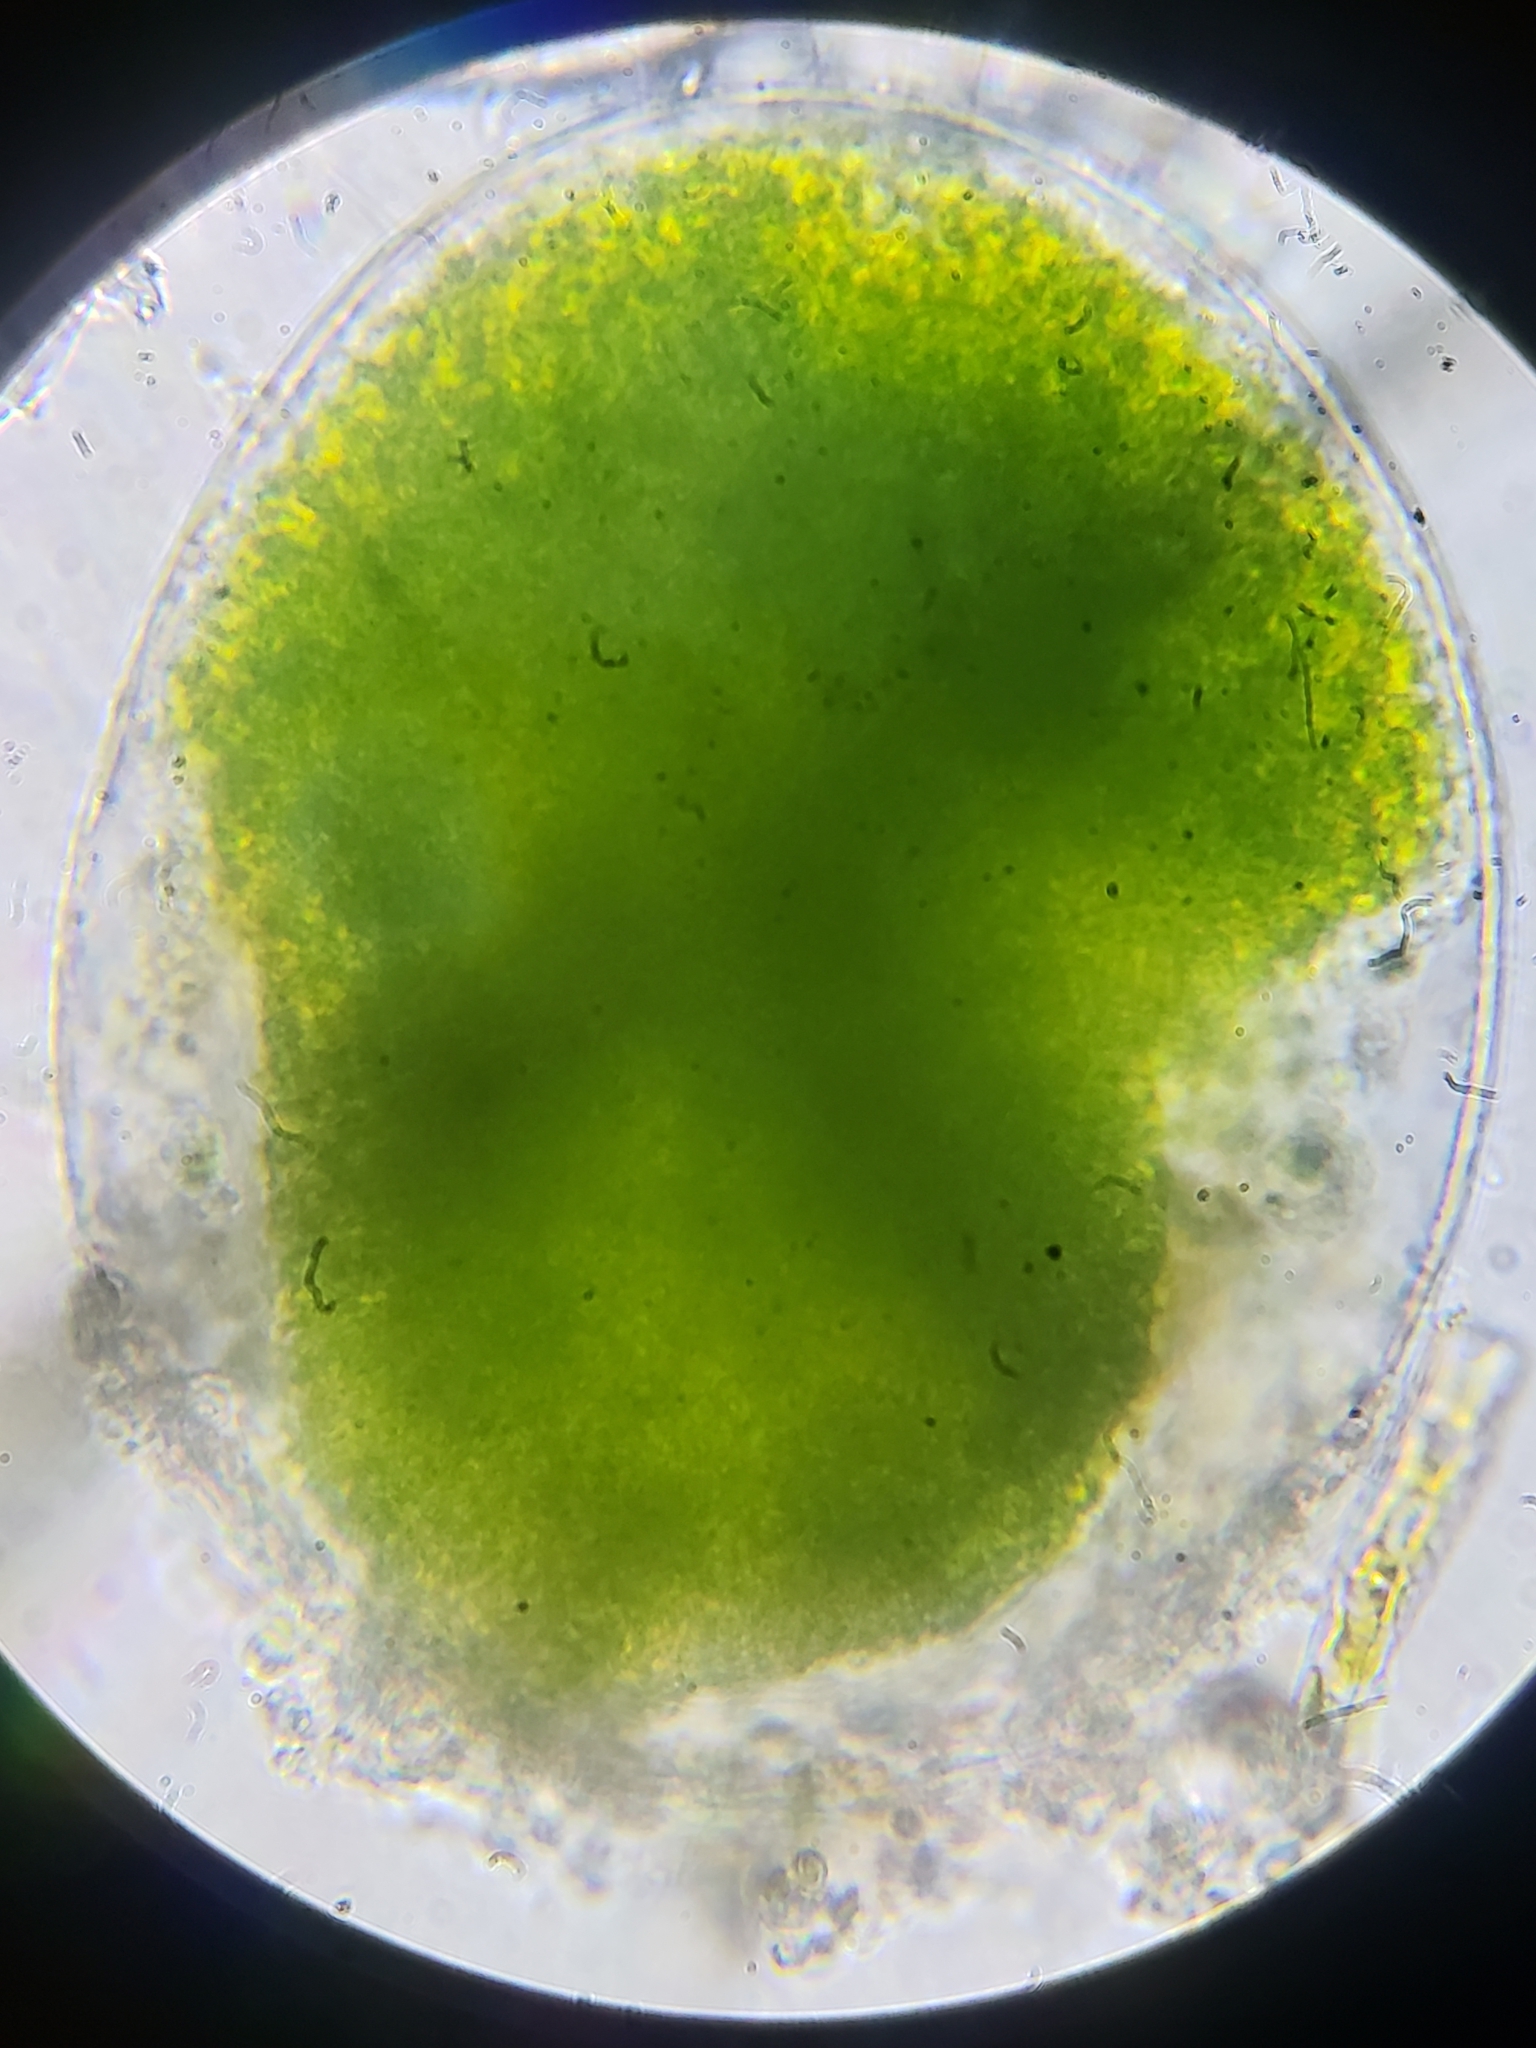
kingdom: Chromista
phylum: Ochrophyta
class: Xanthophyceae
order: Vaucheriales
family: Vaucheriaceae
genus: Vaucheria
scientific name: Vaucheria
